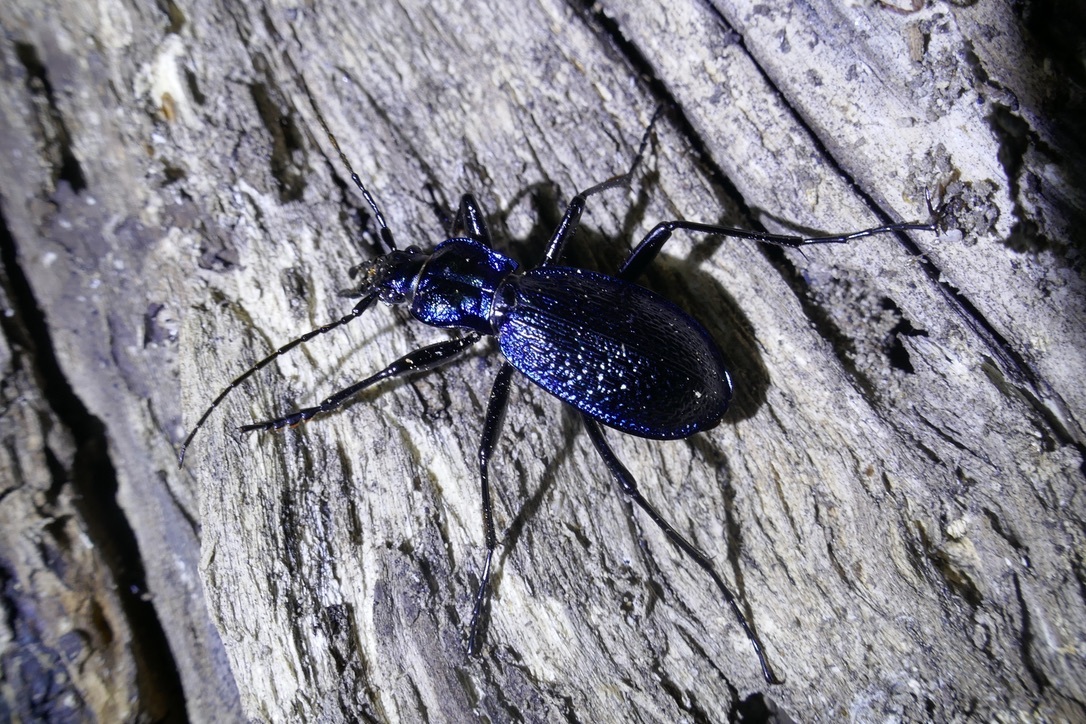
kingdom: Animalia
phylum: Arthropoda
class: Insecta
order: Coleoptera
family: Carabidae
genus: Carabus
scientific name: Carabus intricatus
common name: Blue ground beetle
